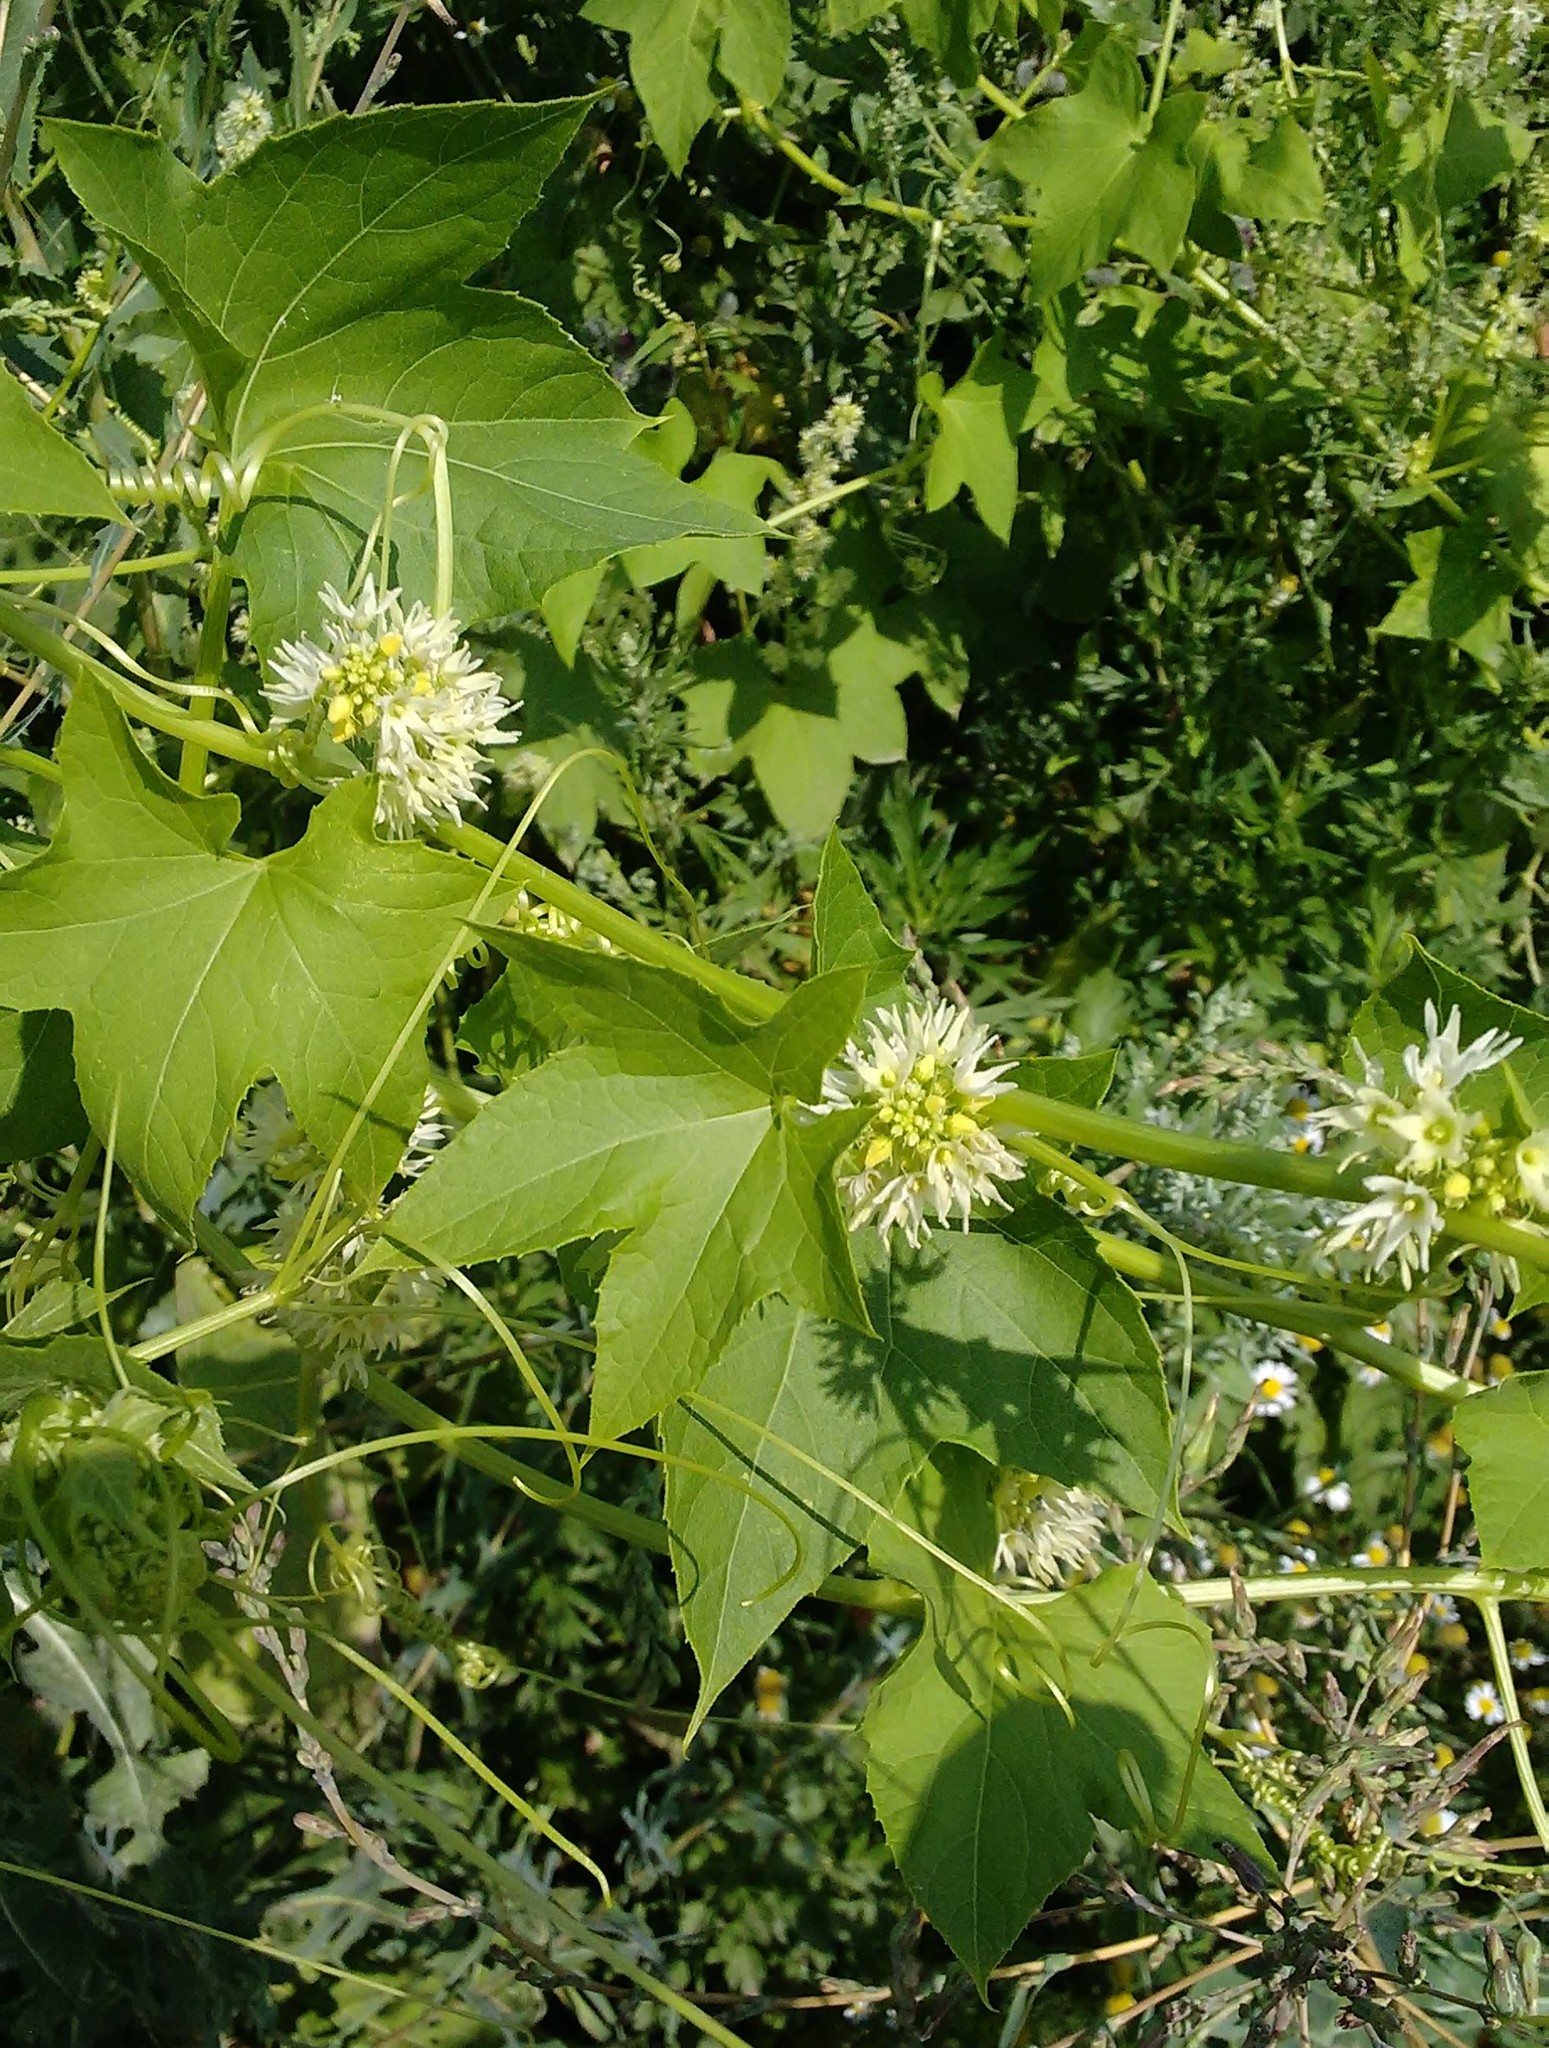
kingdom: Plantae
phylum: Tracheophyta
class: Magnoliopsida
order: Cucurbitales
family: Cucurbitaceae
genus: Echinocystis
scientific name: Echinocystis lobata
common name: Wild cucumber
